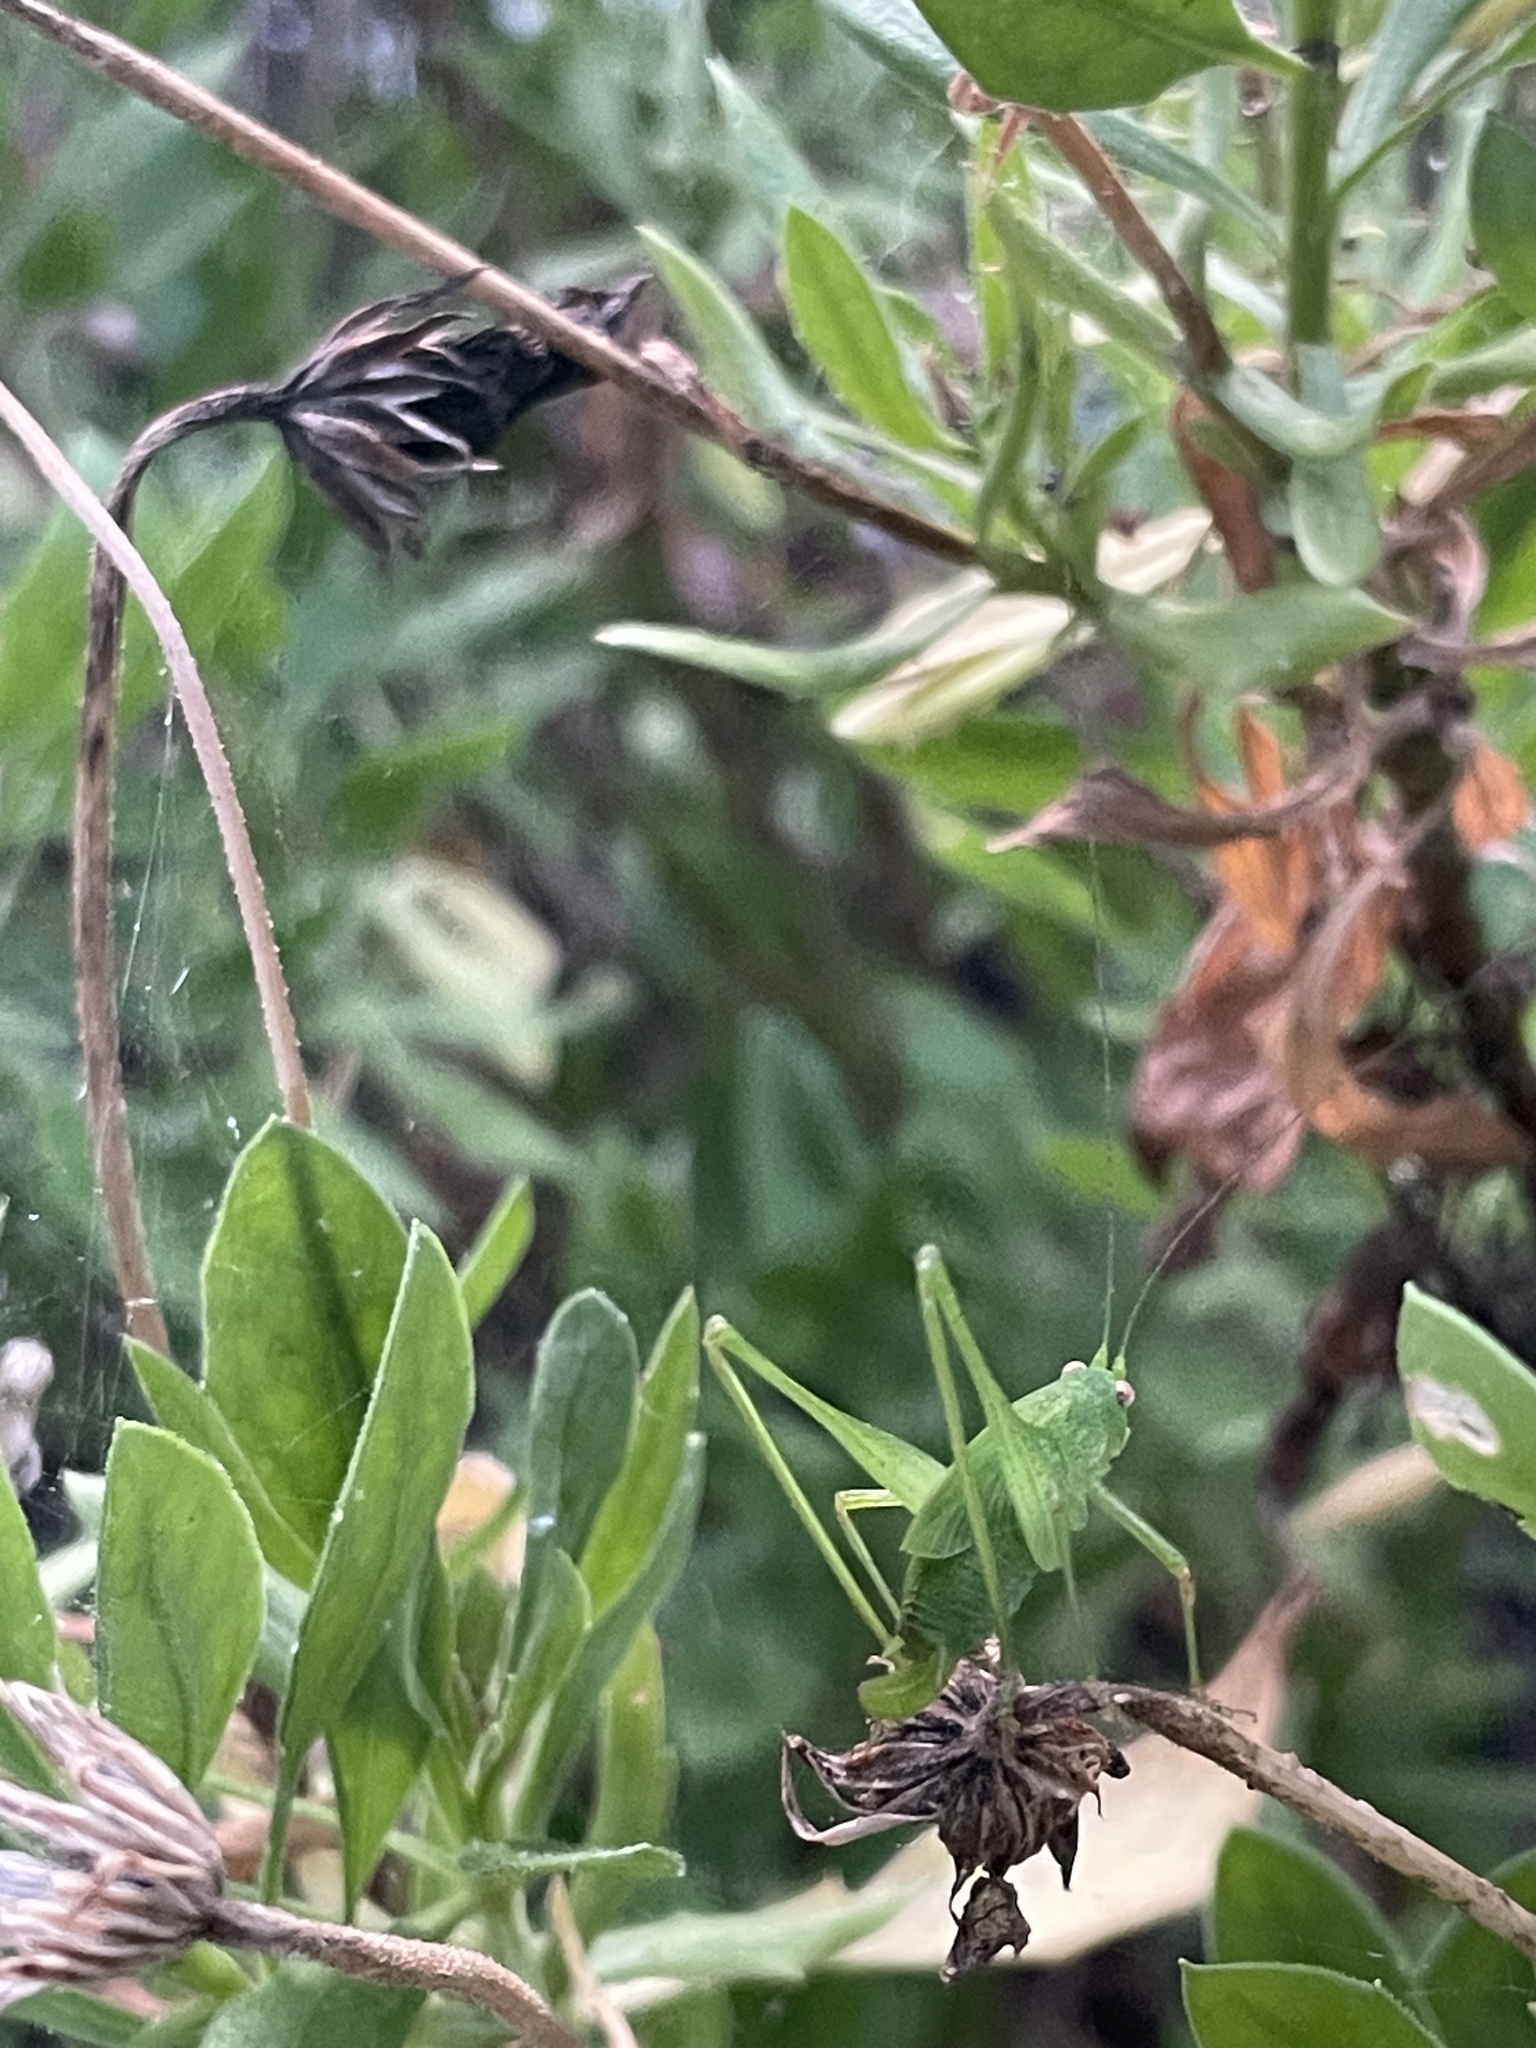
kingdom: Animalia
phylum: Arthropoda
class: Insecta
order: Orthoptera
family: Tettigoniidae
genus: Phaneroptera
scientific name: Phaneroptera nana
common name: Southern sickle bush-cricket
